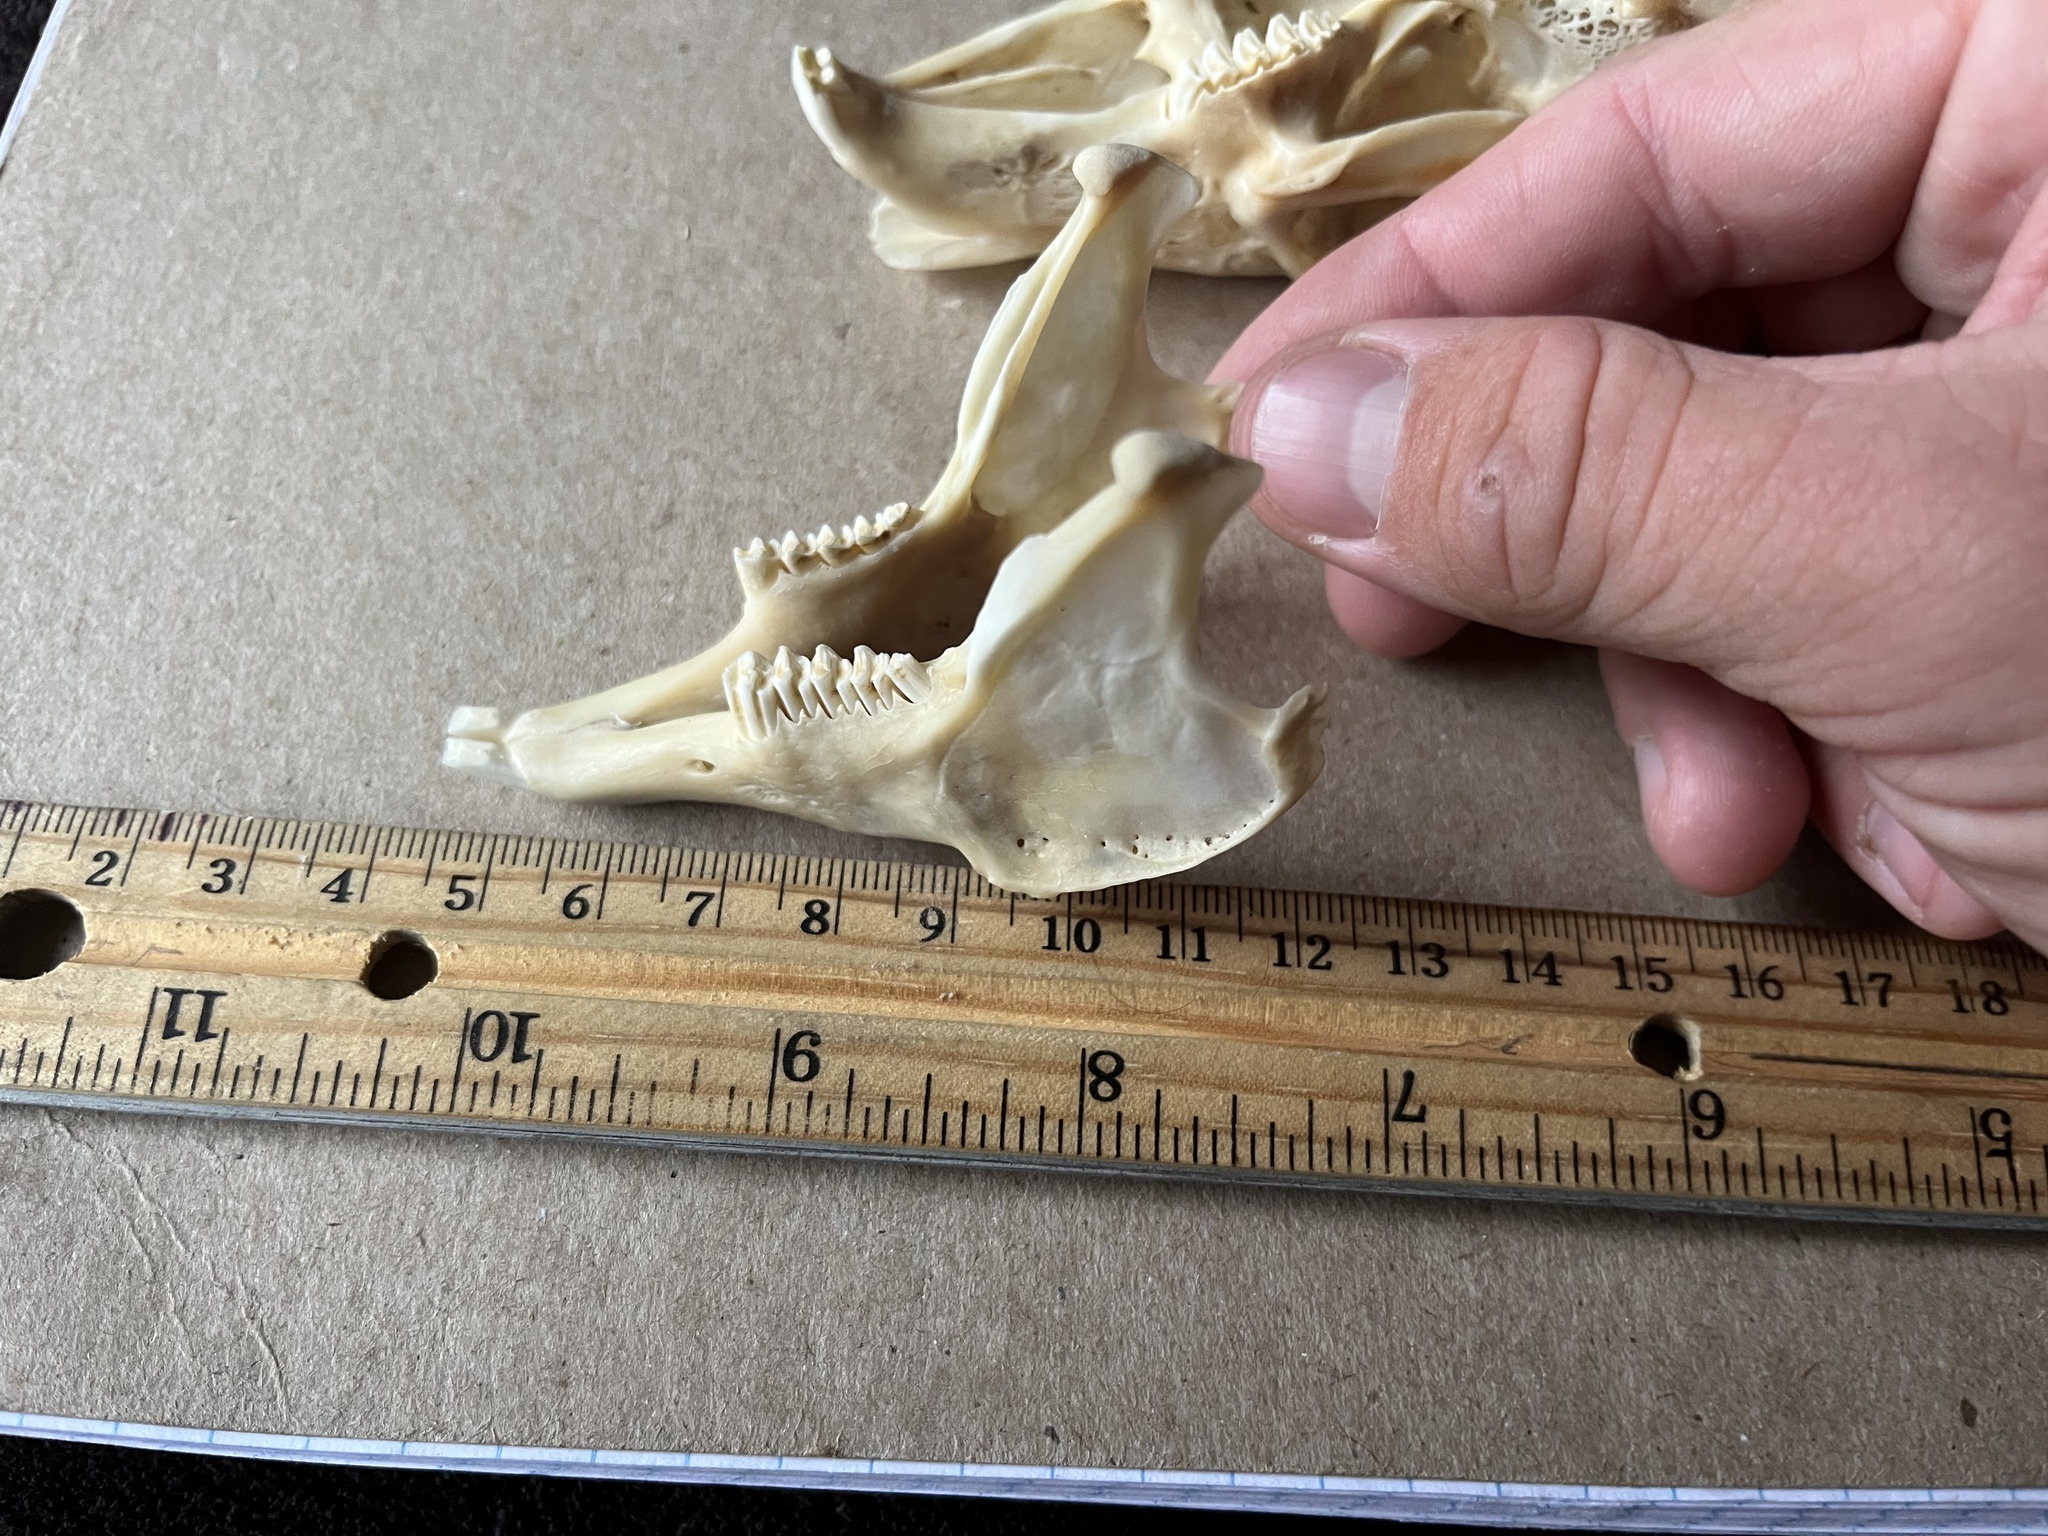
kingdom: Animalia
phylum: Chordata
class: Mammalia
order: Lagomorpha
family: Leporidae
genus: Lepus
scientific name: Lepus californicus
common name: Black-tailed jackrabbit
